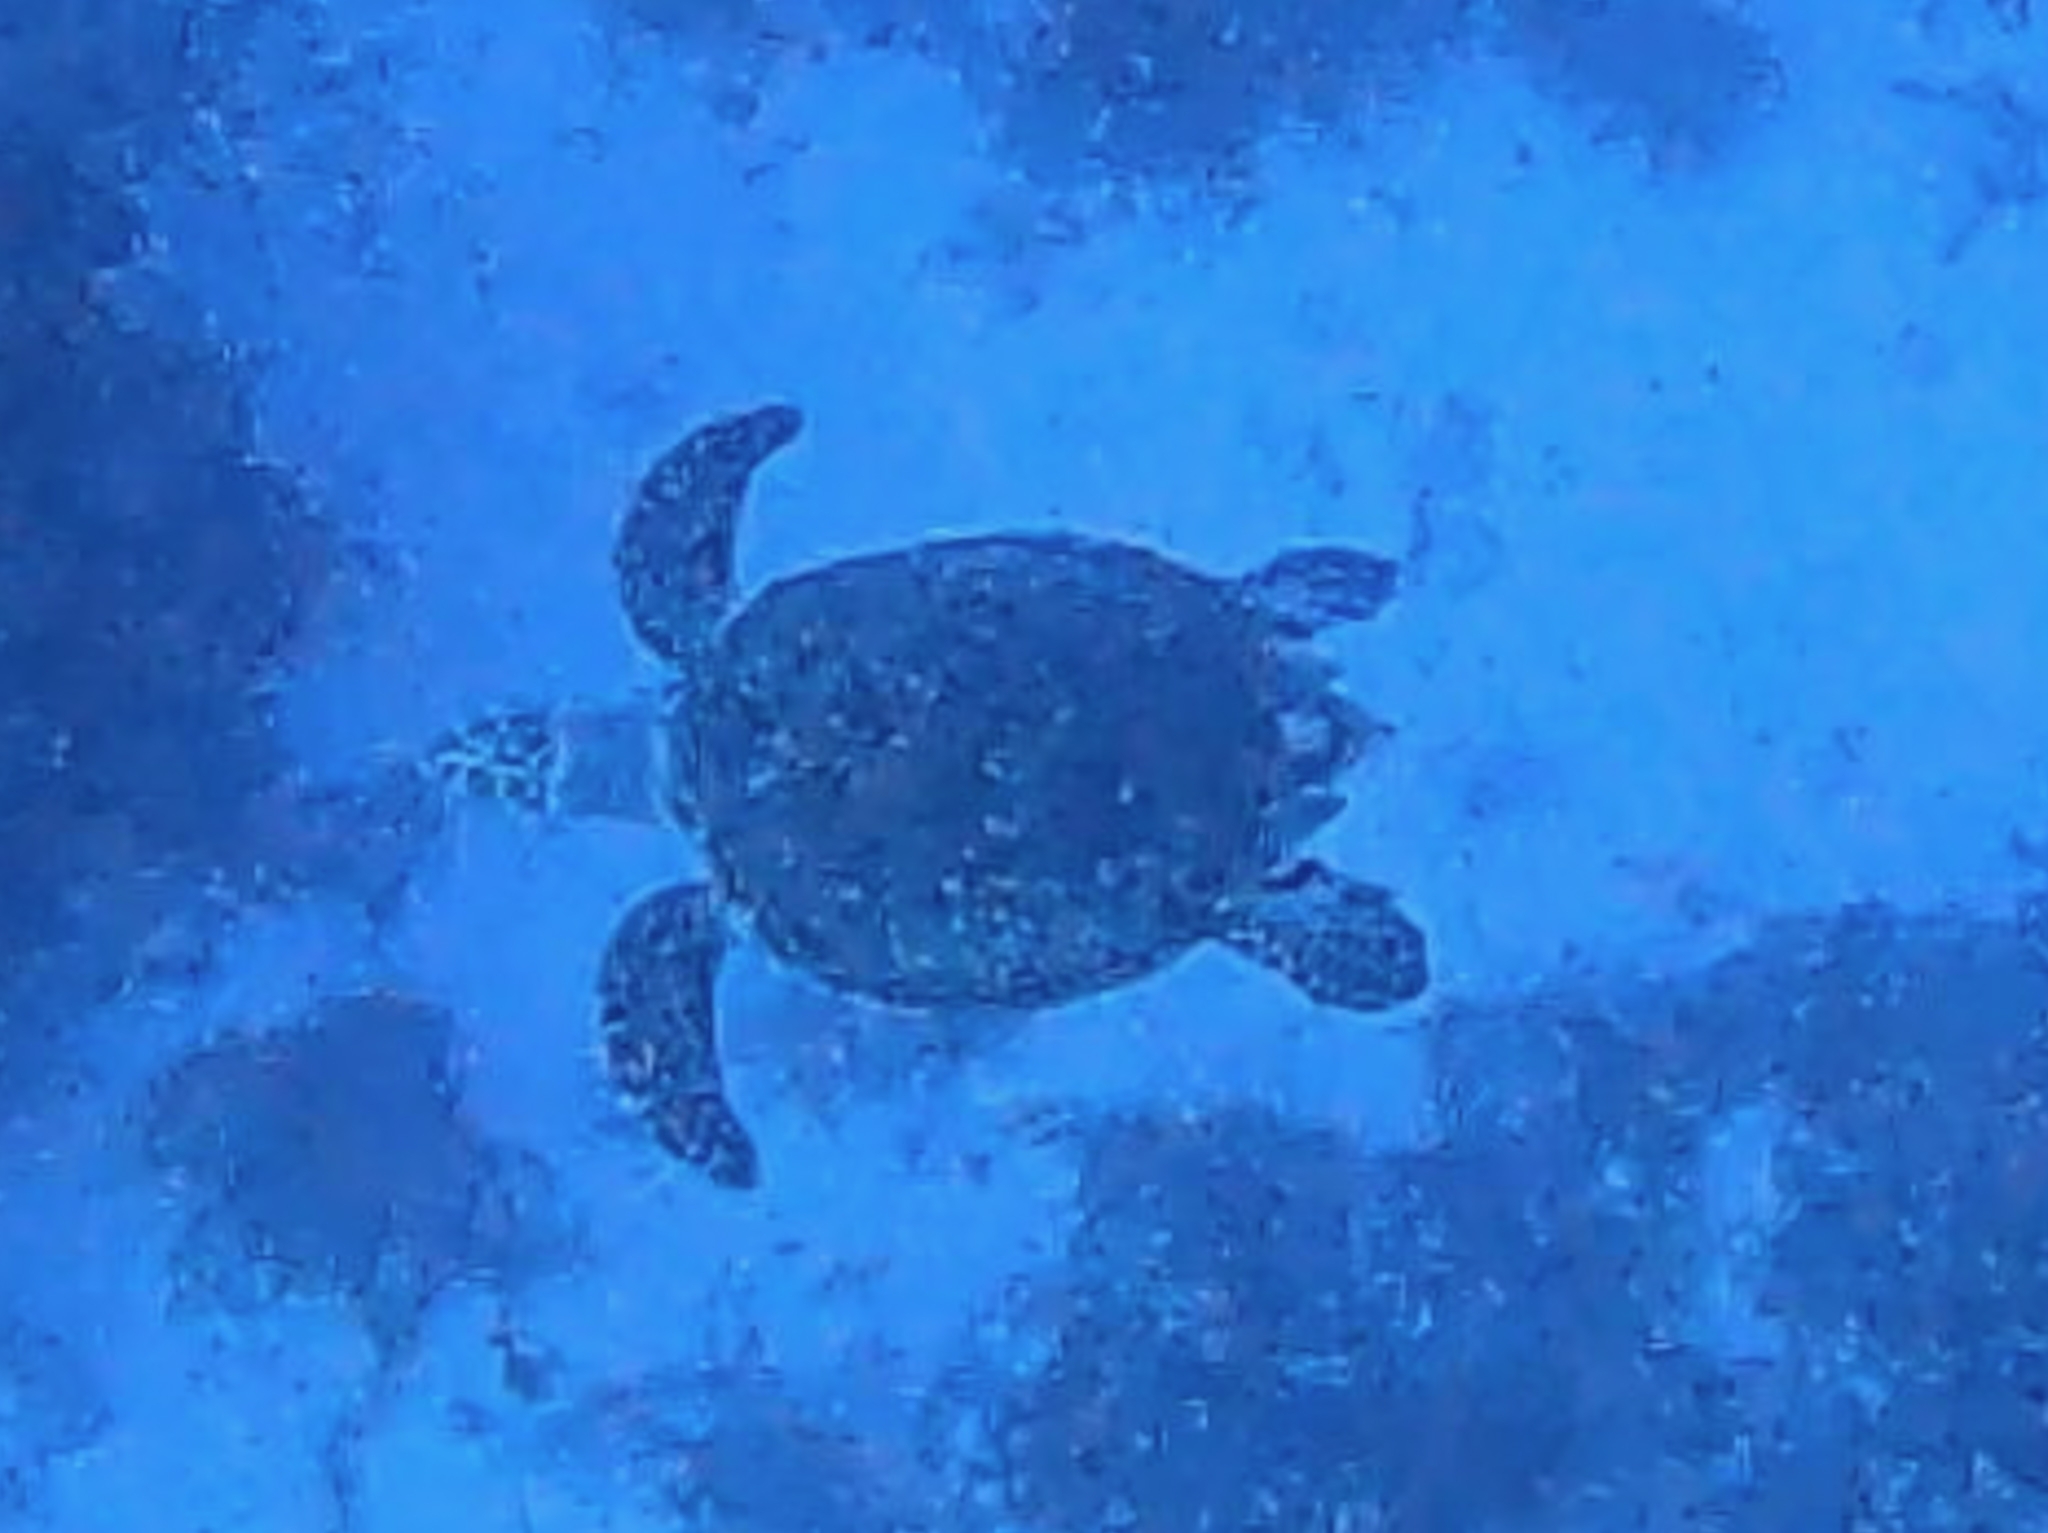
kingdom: Animalia
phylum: Chordata
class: Testudines
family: Cheloniidae
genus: Eretmochelys
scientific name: Eretmochelys imbricata
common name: Hawksbill turtle
